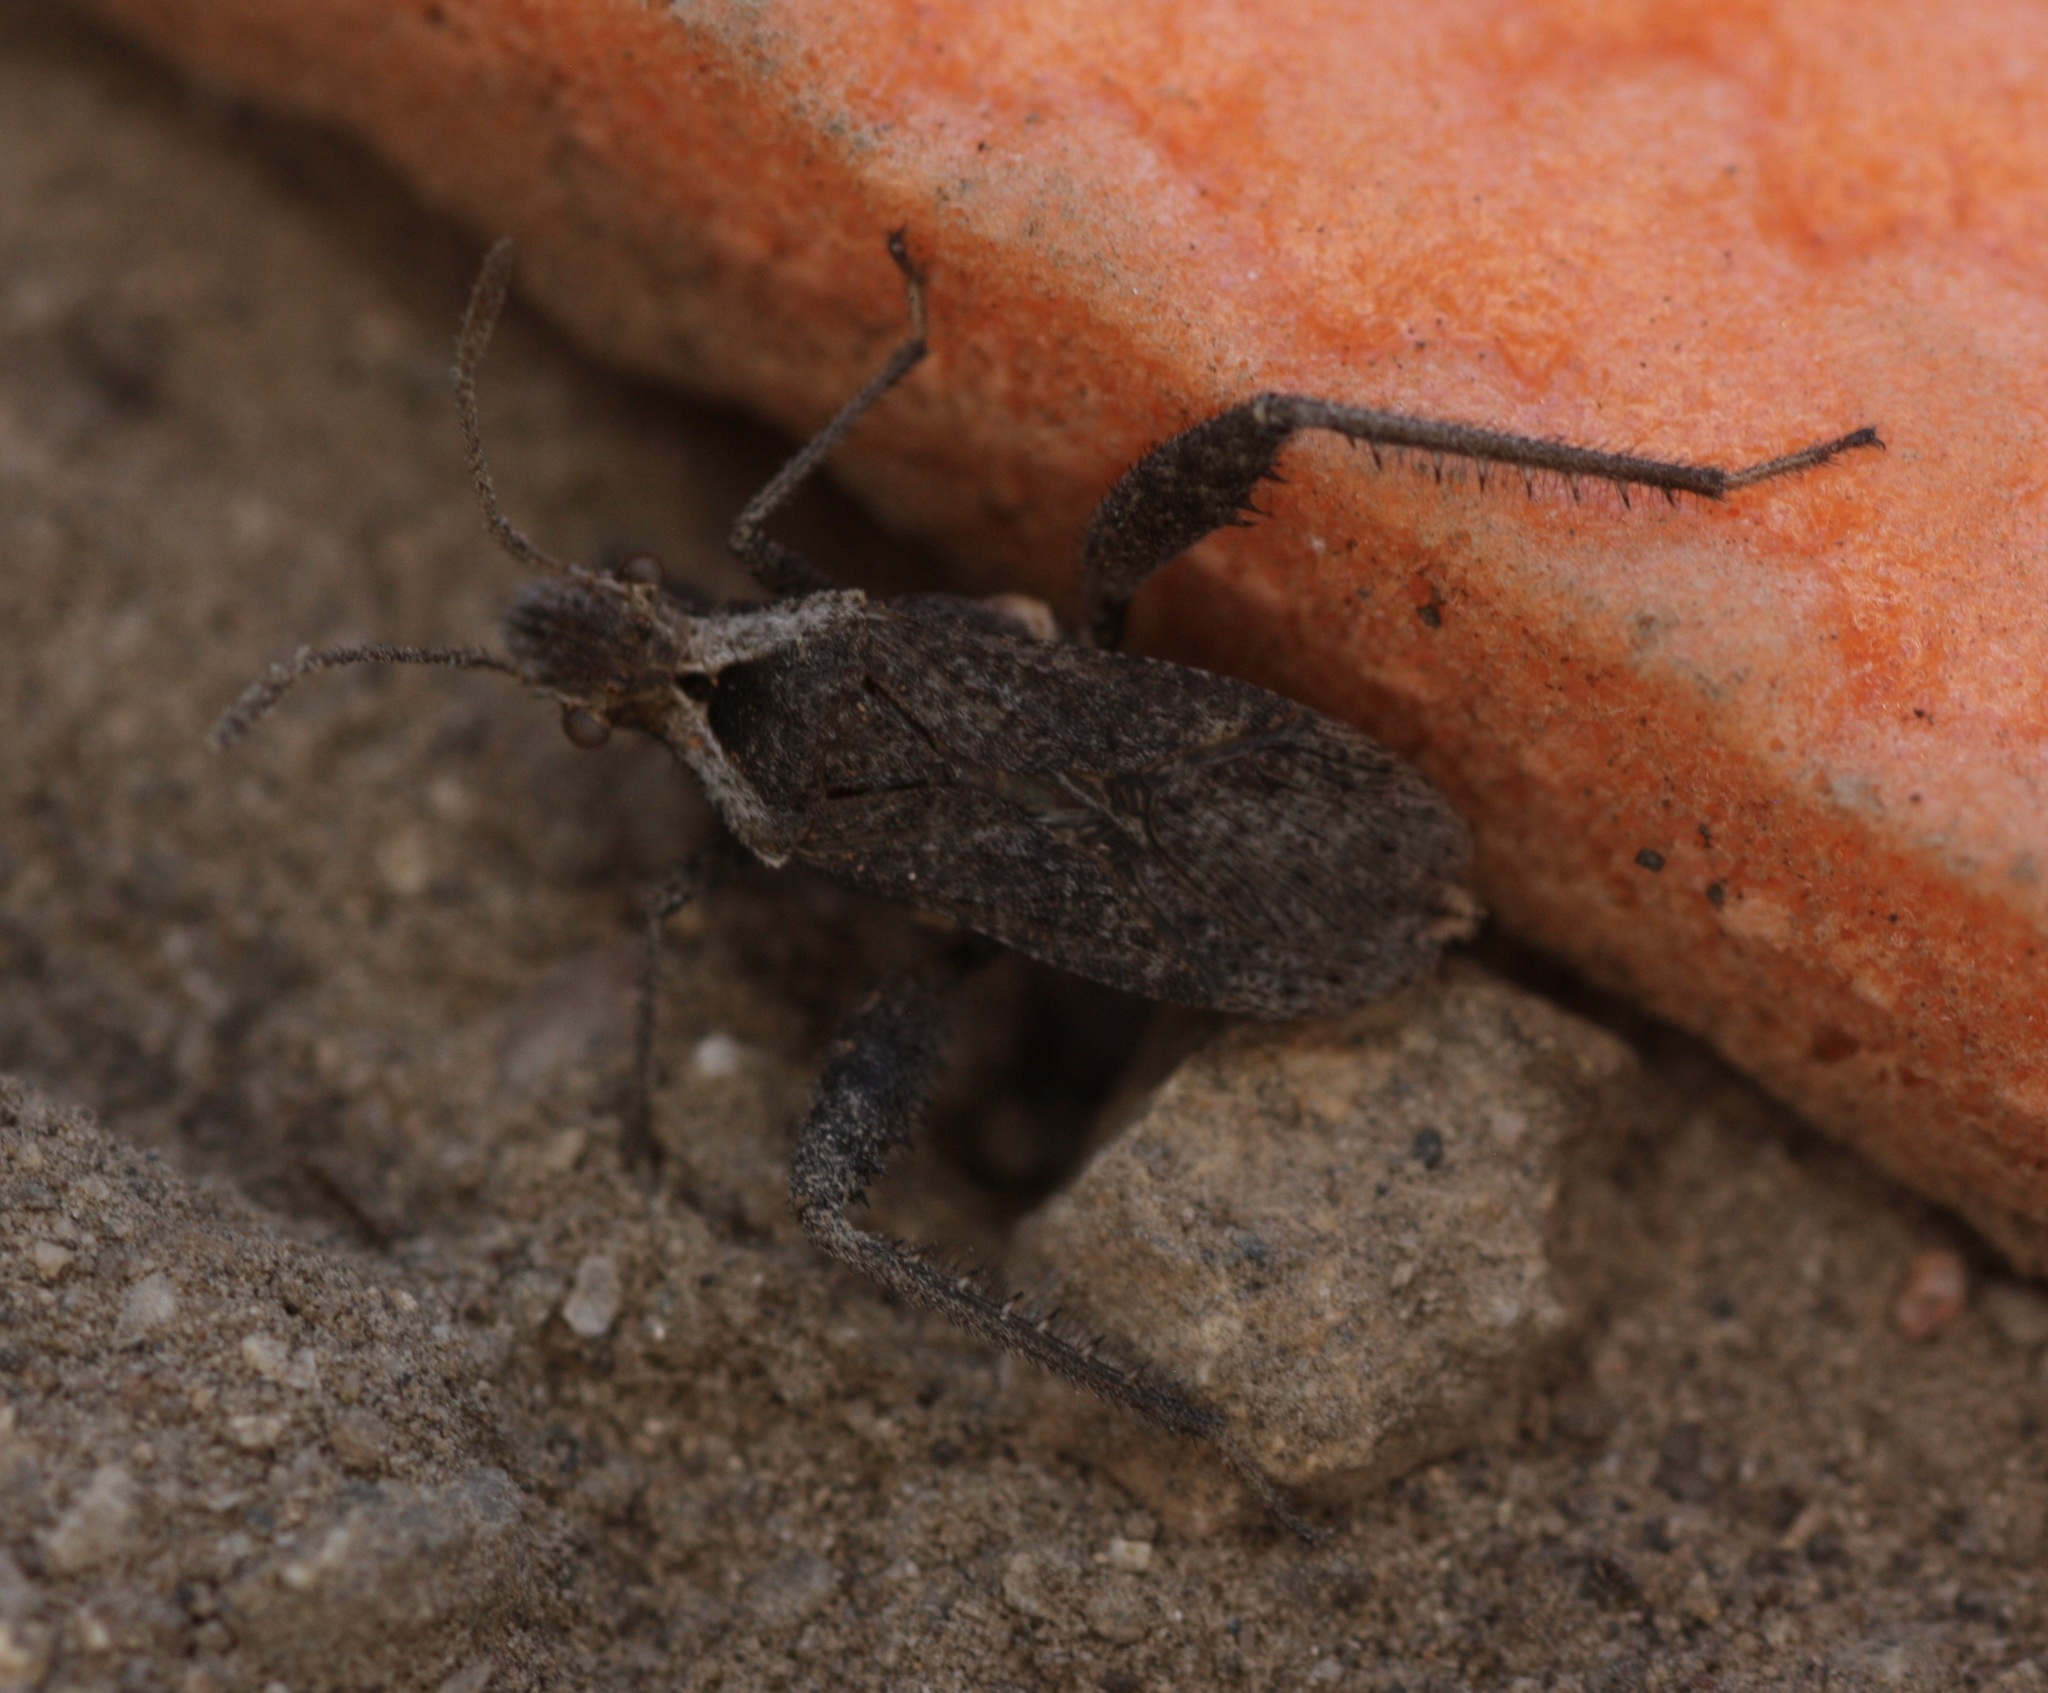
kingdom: Animalia
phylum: Arthropoda
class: Insecta
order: Hemiptera
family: Alydidae
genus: Stachyocnemus
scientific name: Stachyocnemus apicalis
